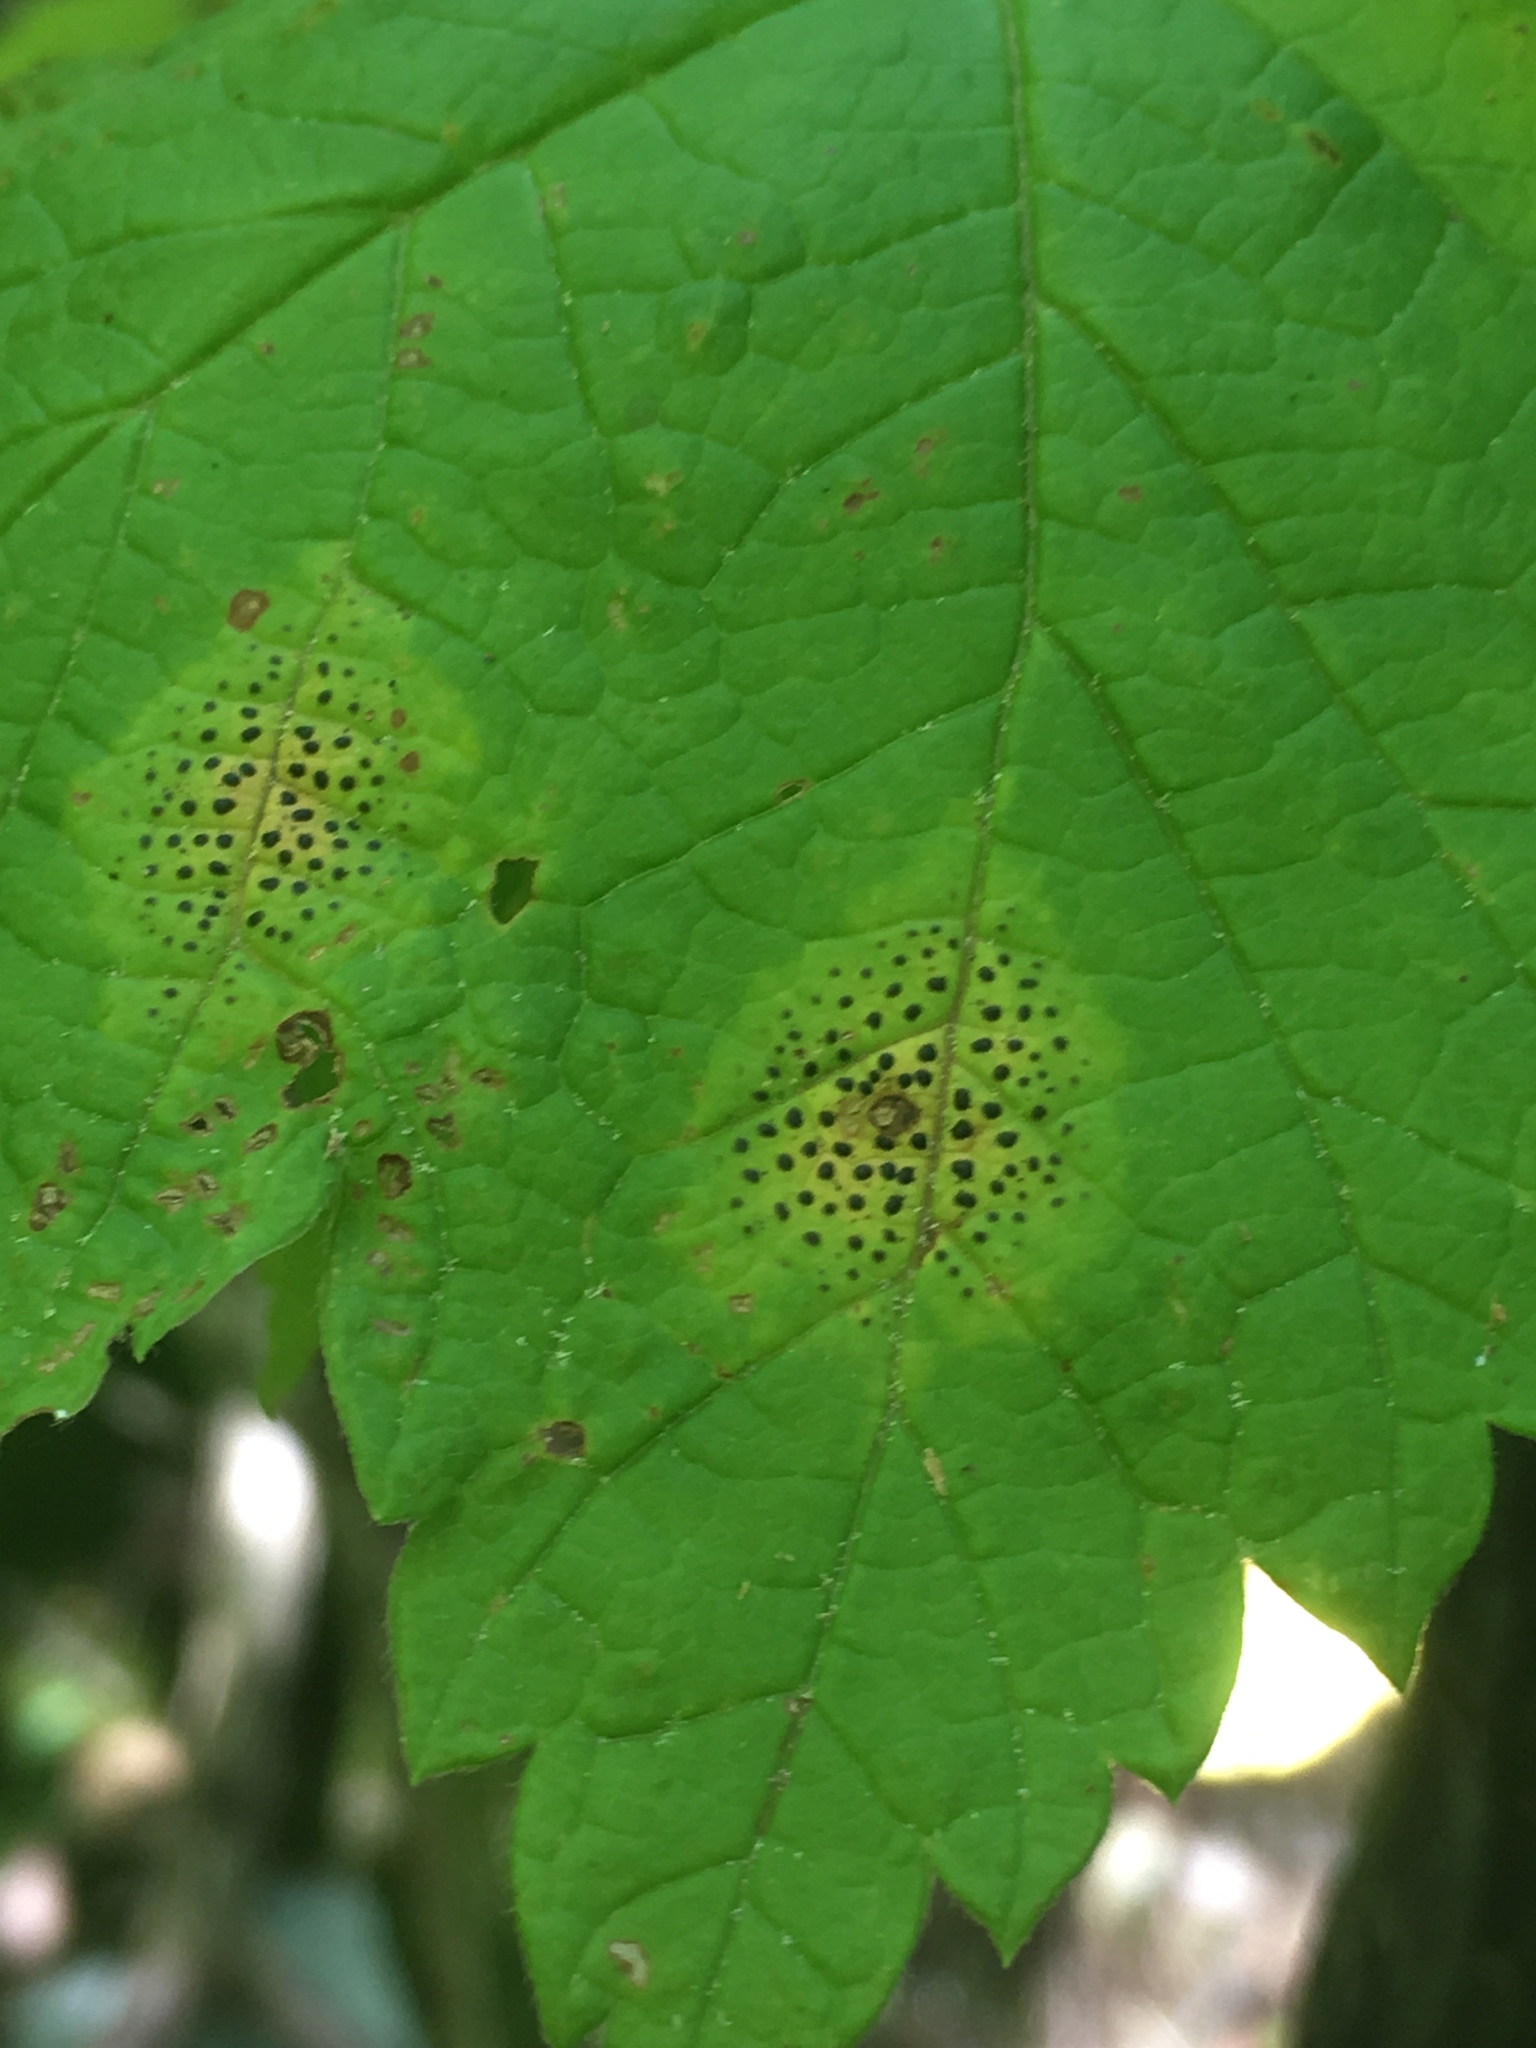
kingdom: Fungi
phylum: Ascomycota
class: Leotiomycetes
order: Rhytismatales
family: Rhytismataceae
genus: Rhytisma
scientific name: Rhytisma punctatum
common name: Speckled tar spot
